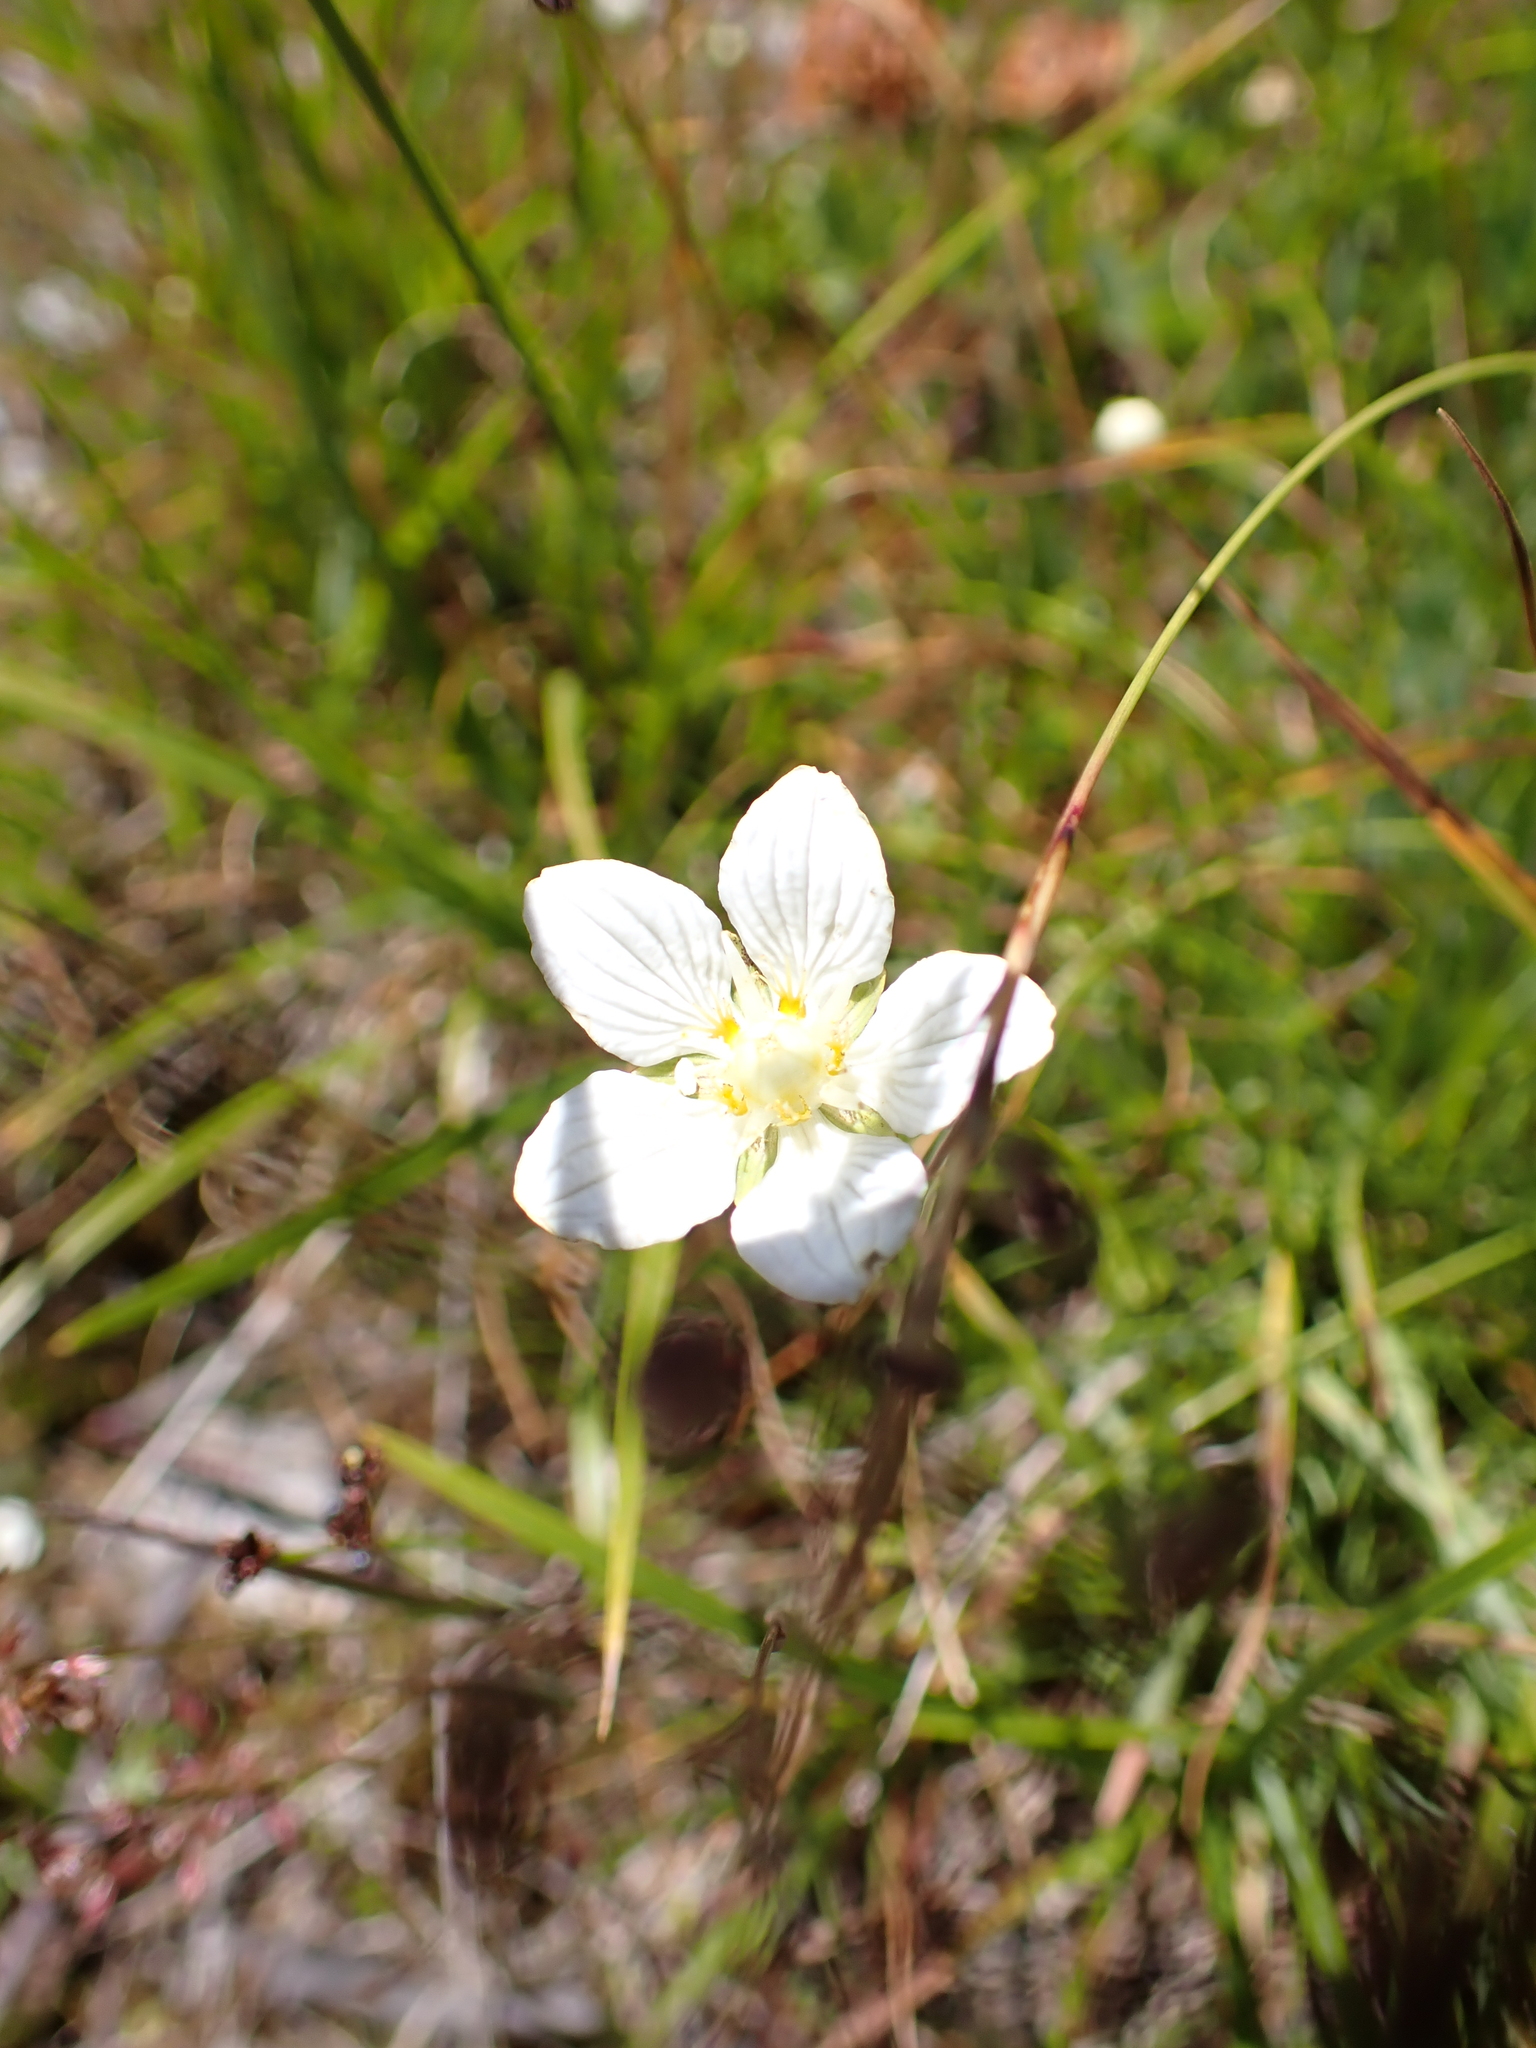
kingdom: Plantae
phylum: Tracheophyta
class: Magnoliopsida
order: Celastrales
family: Parnassiaceae
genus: Parnassia
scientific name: Parnassia palustris
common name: Grass-of-parnassus
